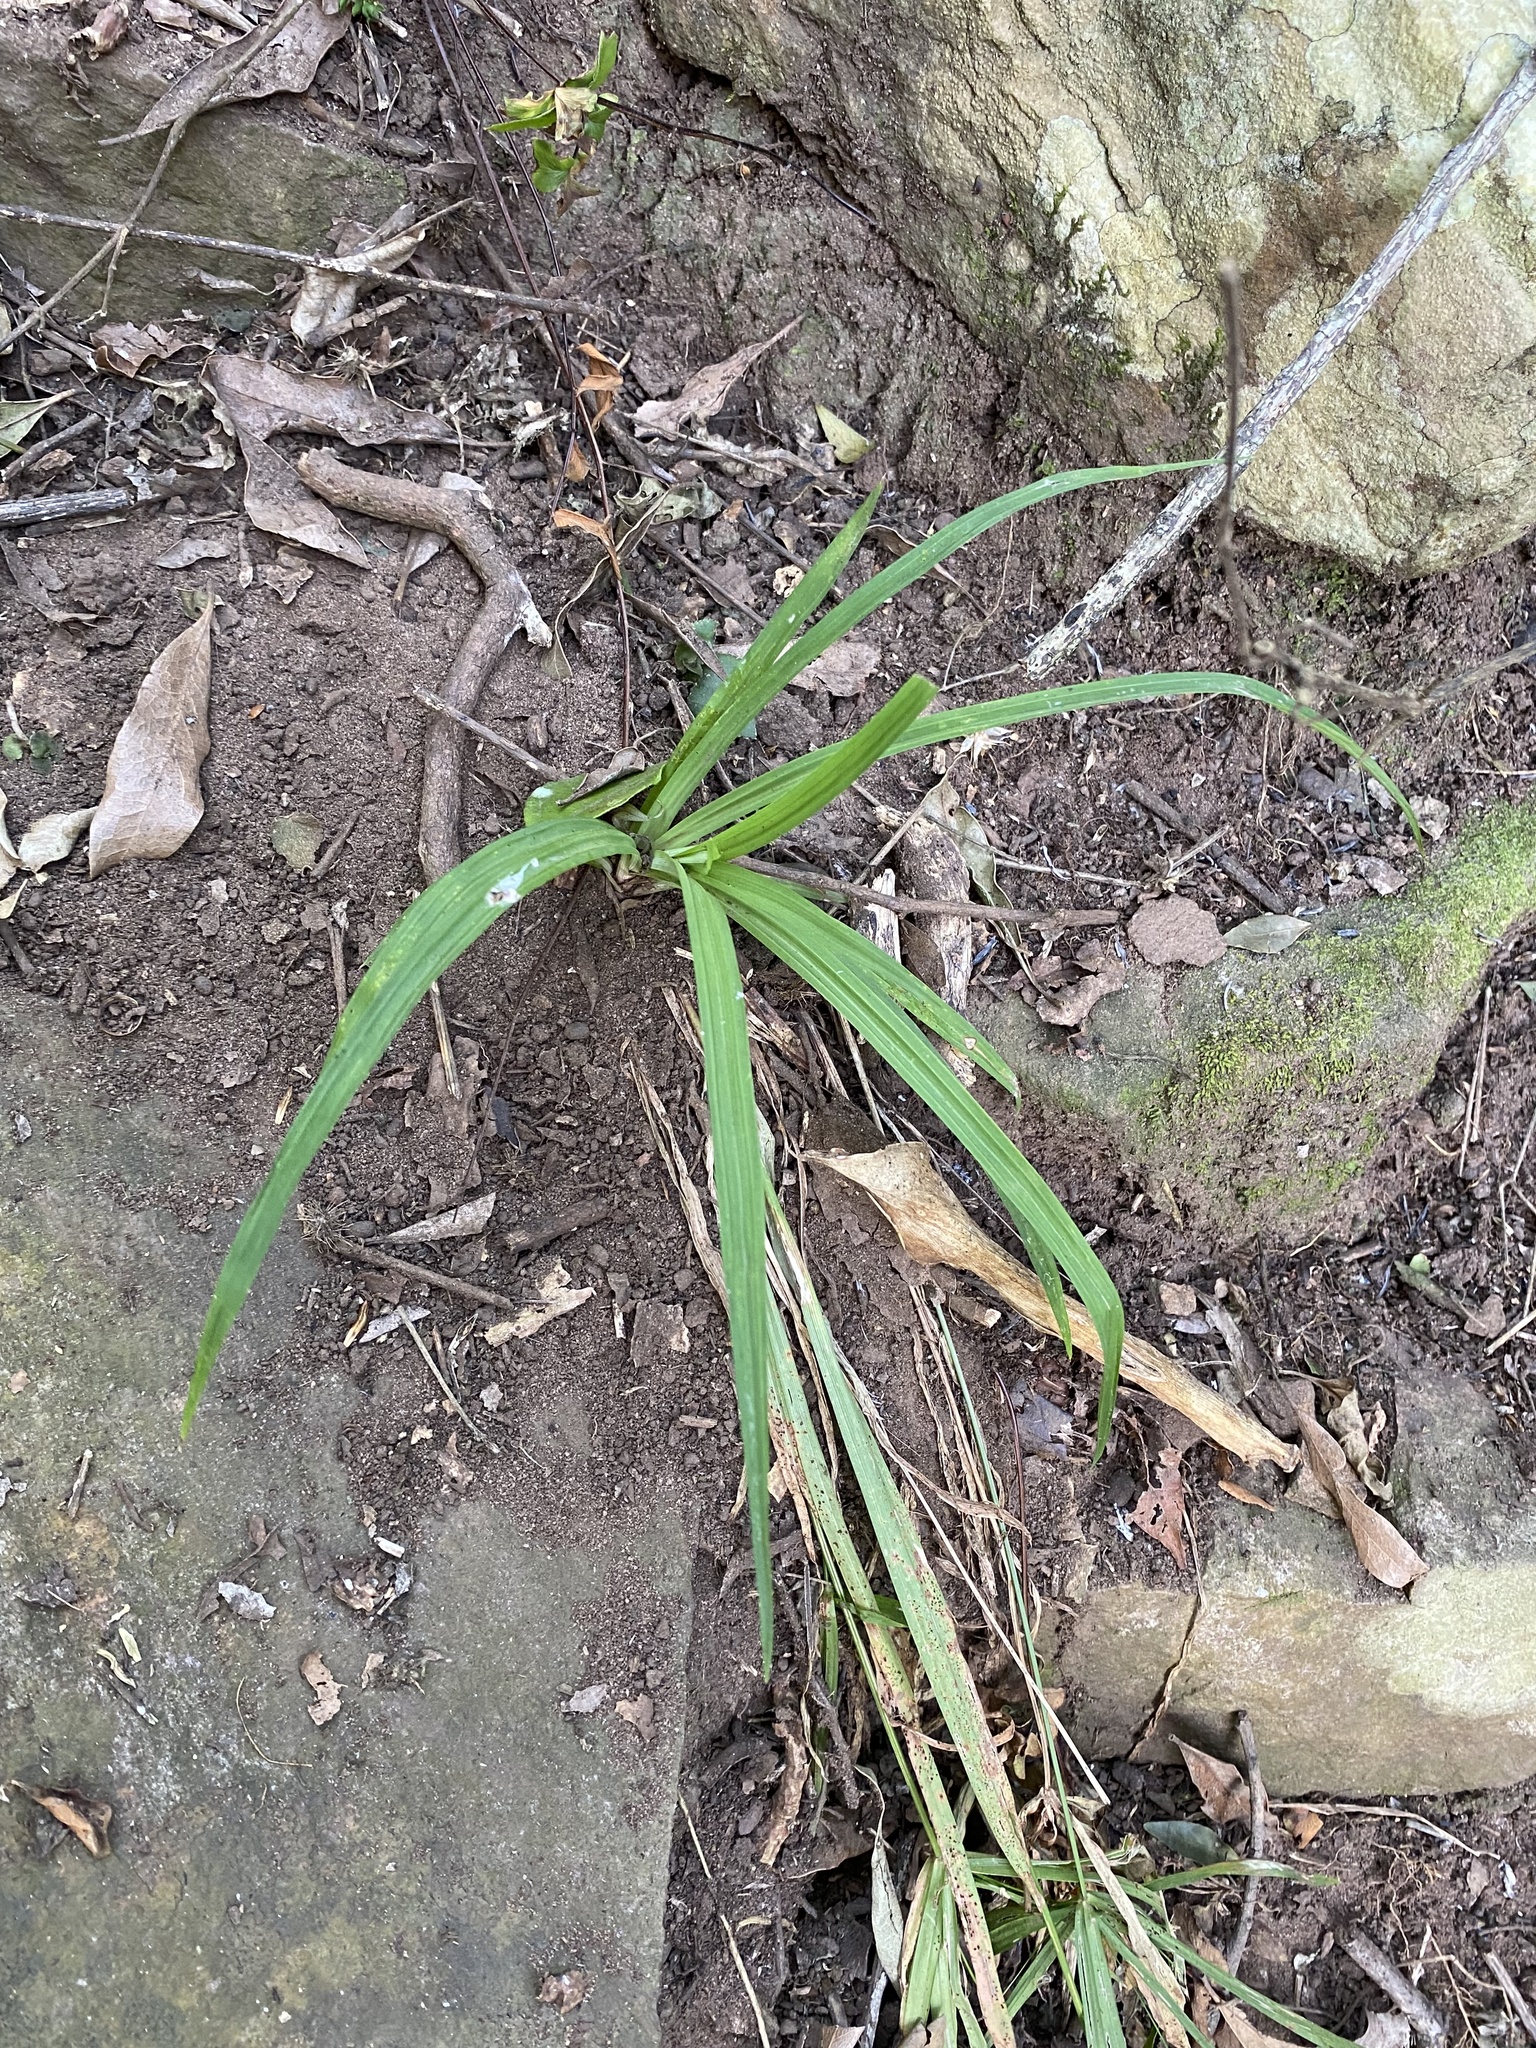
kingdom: Plantae
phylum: Tracheophyta
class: Liliopsida
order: Poales
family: Cyperaceae
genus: Cyperus
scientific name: Cyperus albostriatus
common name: Dwarf umbrella-grass
